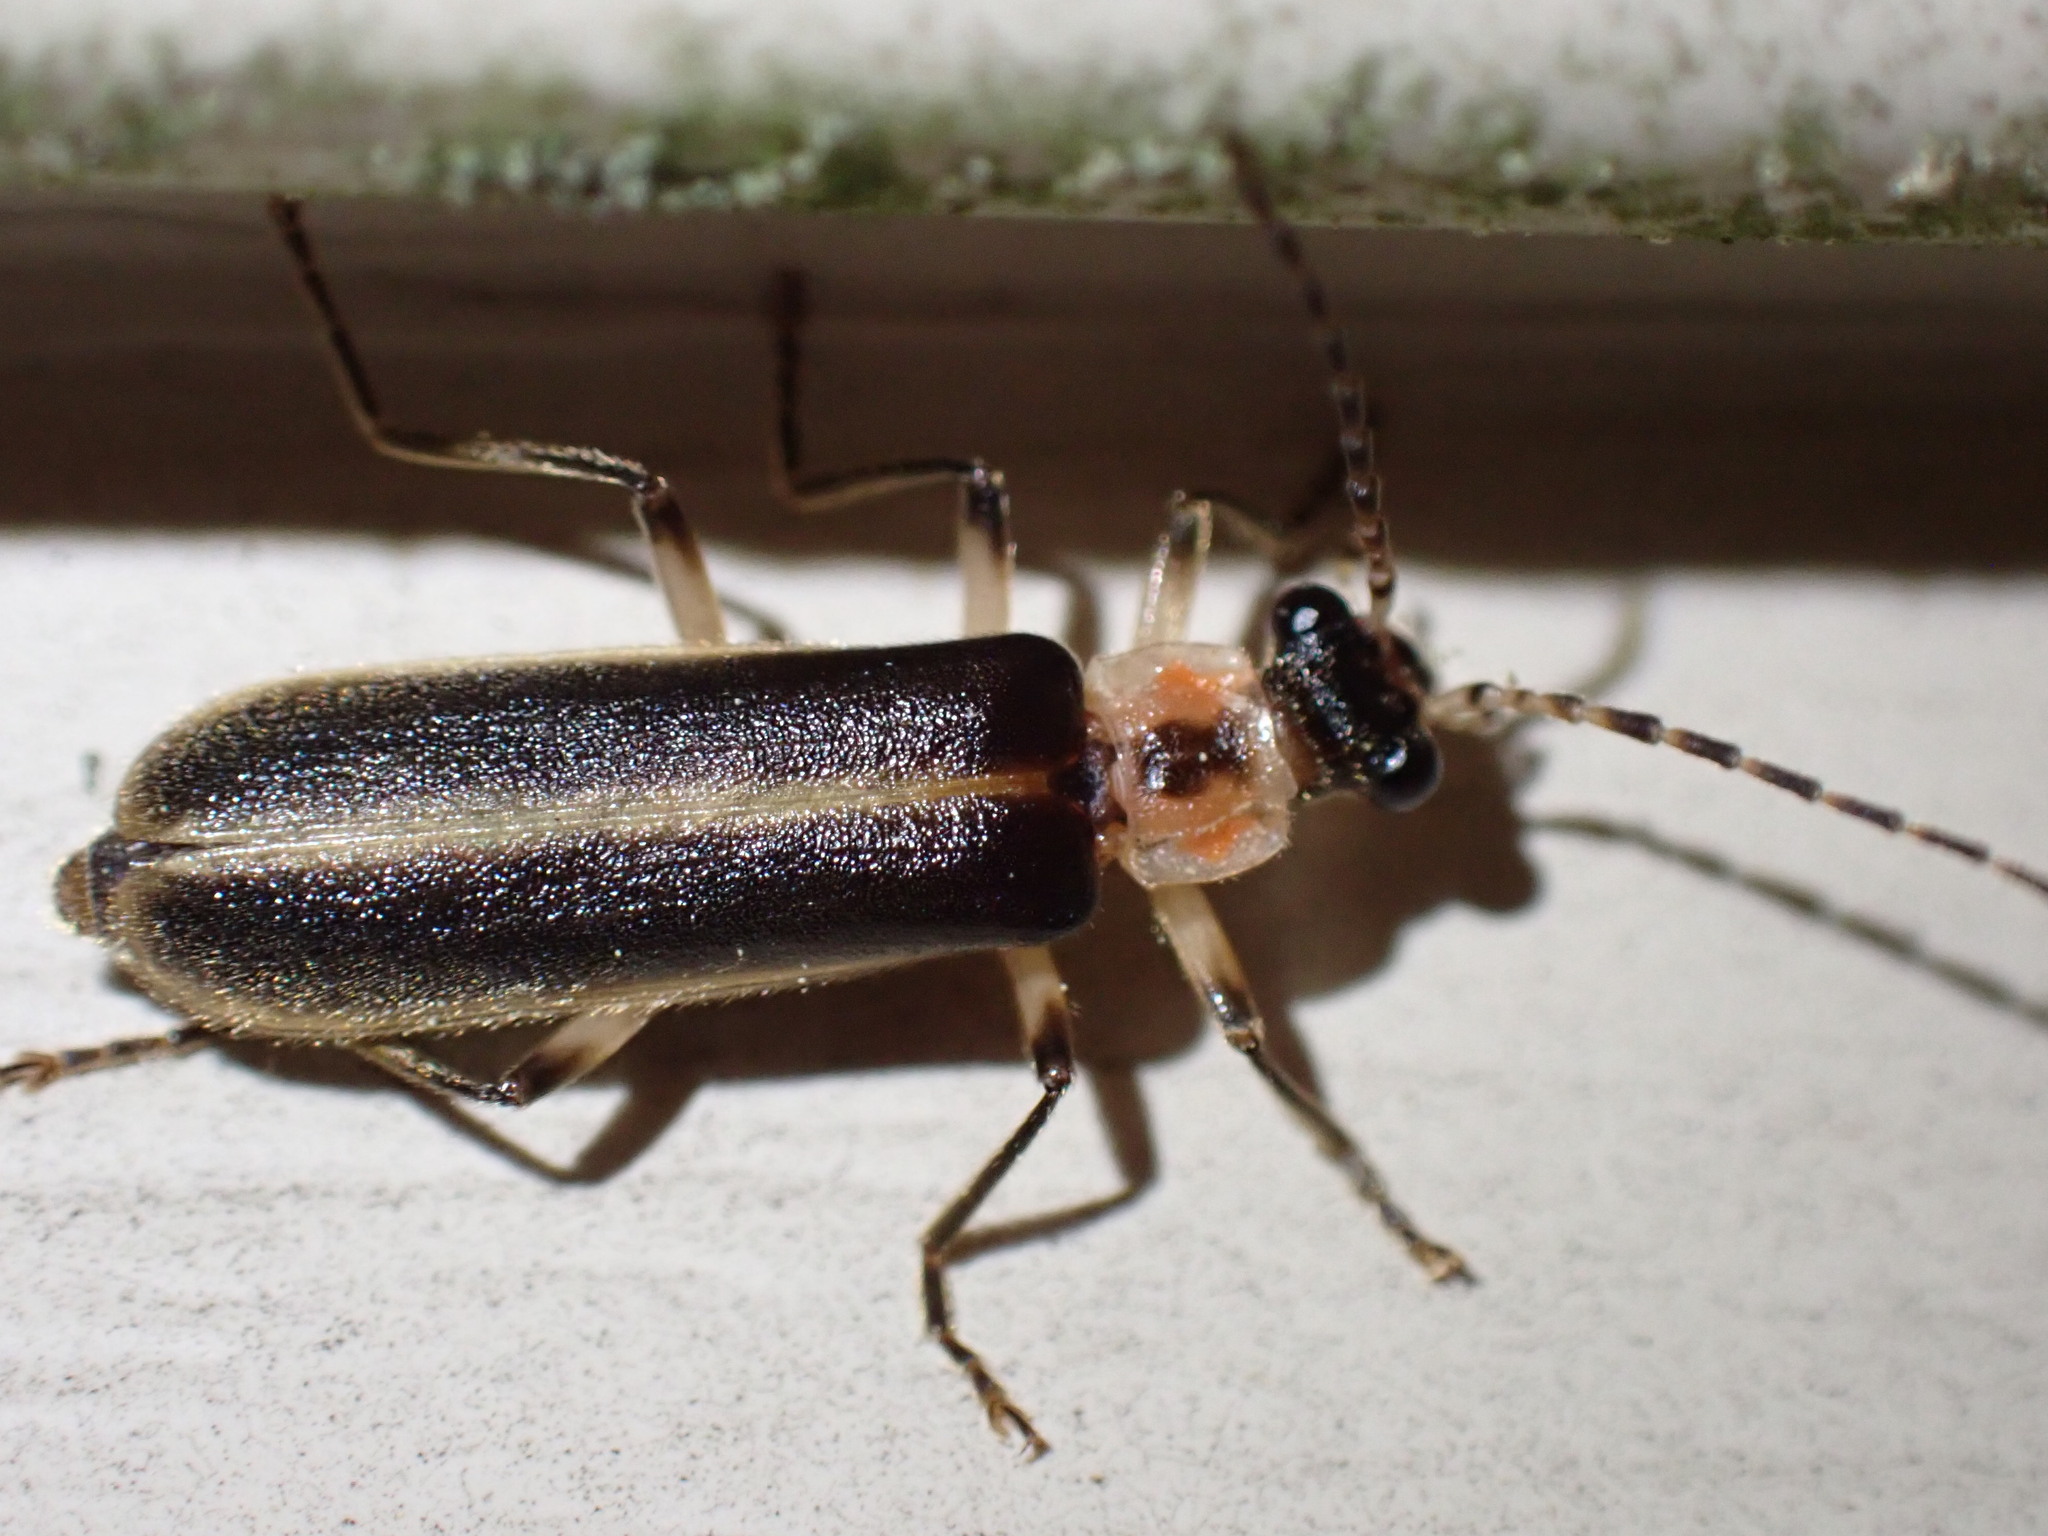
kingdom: Animalia
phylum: Arthropoda
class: Insecta
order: Coleoptera
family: Cantharidae
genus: Podabrus
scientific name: Podabrus basilaris
